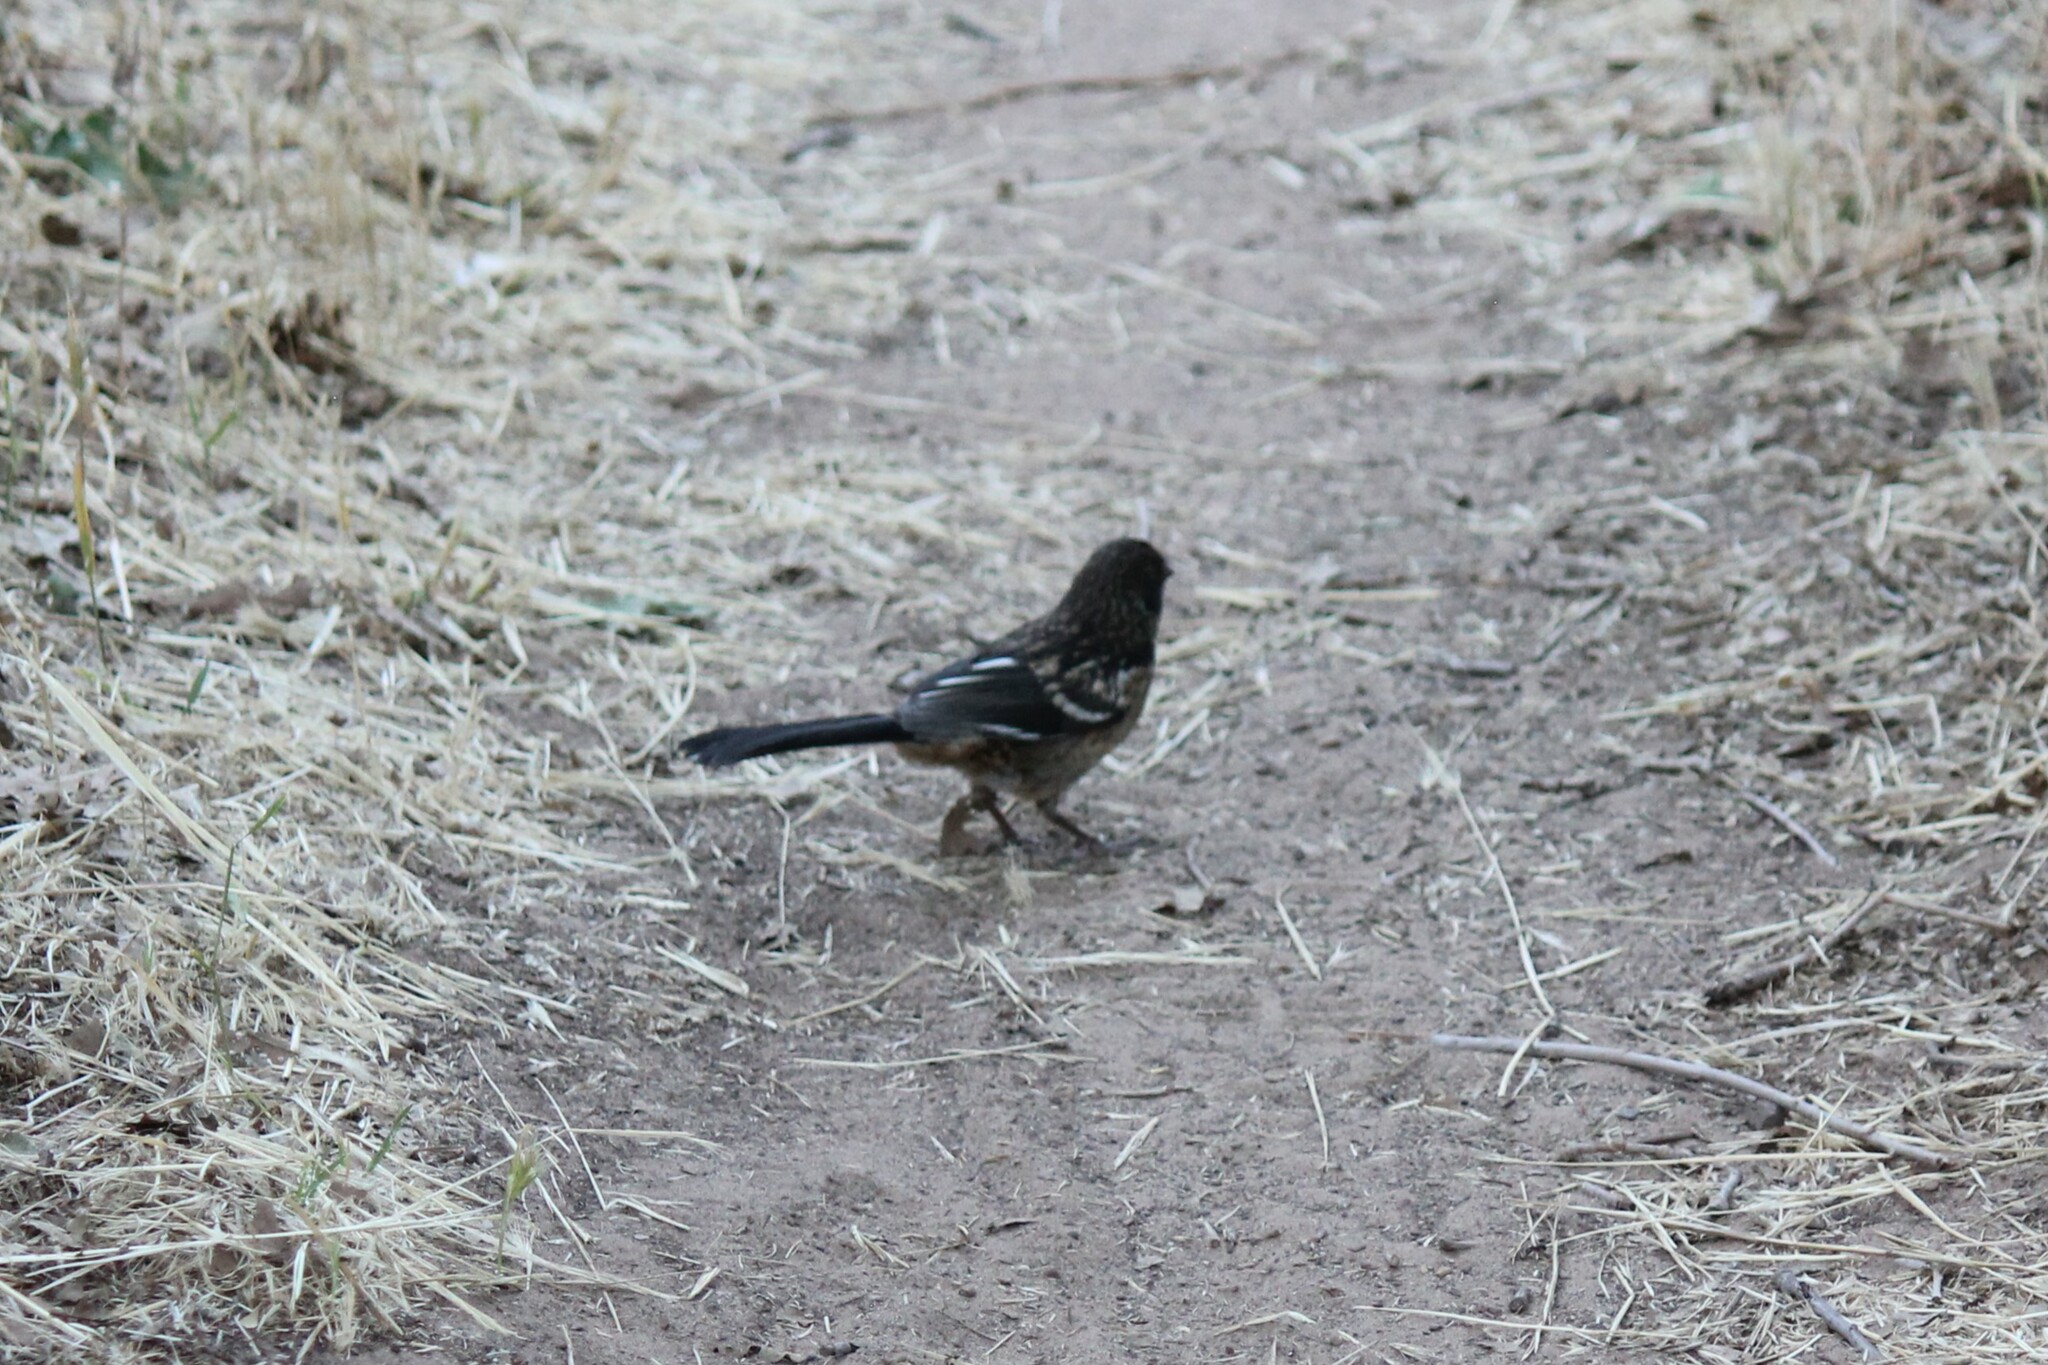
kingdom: Animalia
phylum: Chordata
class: Aves
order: Passeriformes
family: Passerellidae
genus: Pipilo
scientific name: Pipilo maculatus
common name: Spotted towhee
